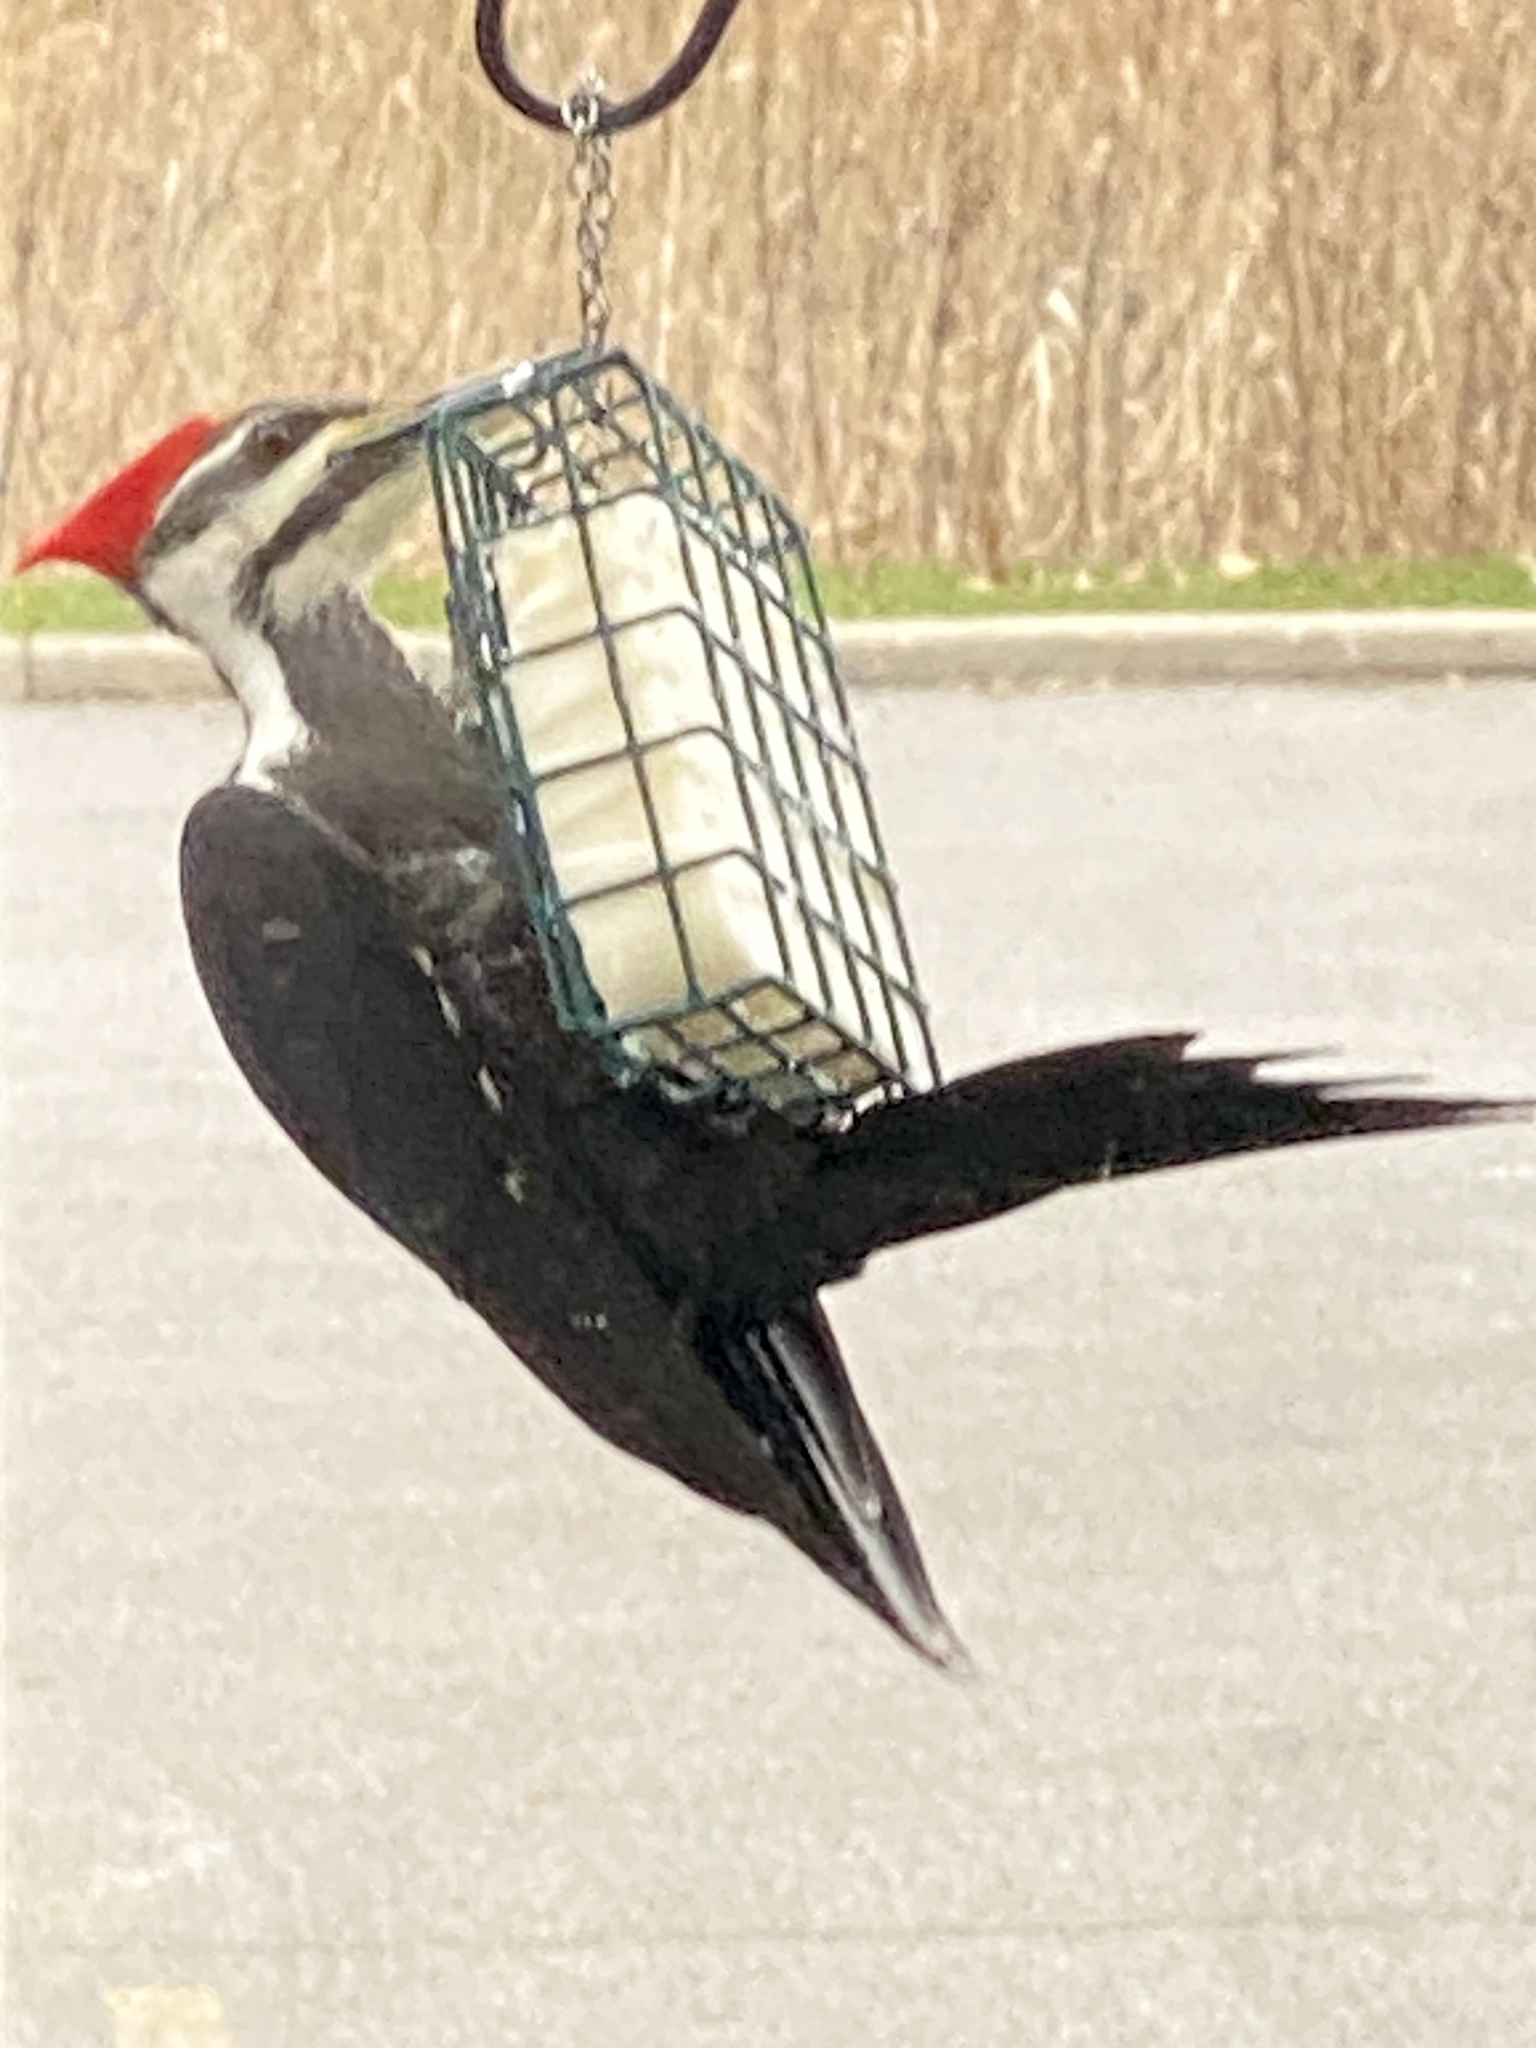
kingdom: Animalia
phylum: Chordata
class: Aves
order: Piciformes
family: Picidae
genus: Dryocopus
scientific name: Dryocopus pileatus
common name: Pileated woodpecker
